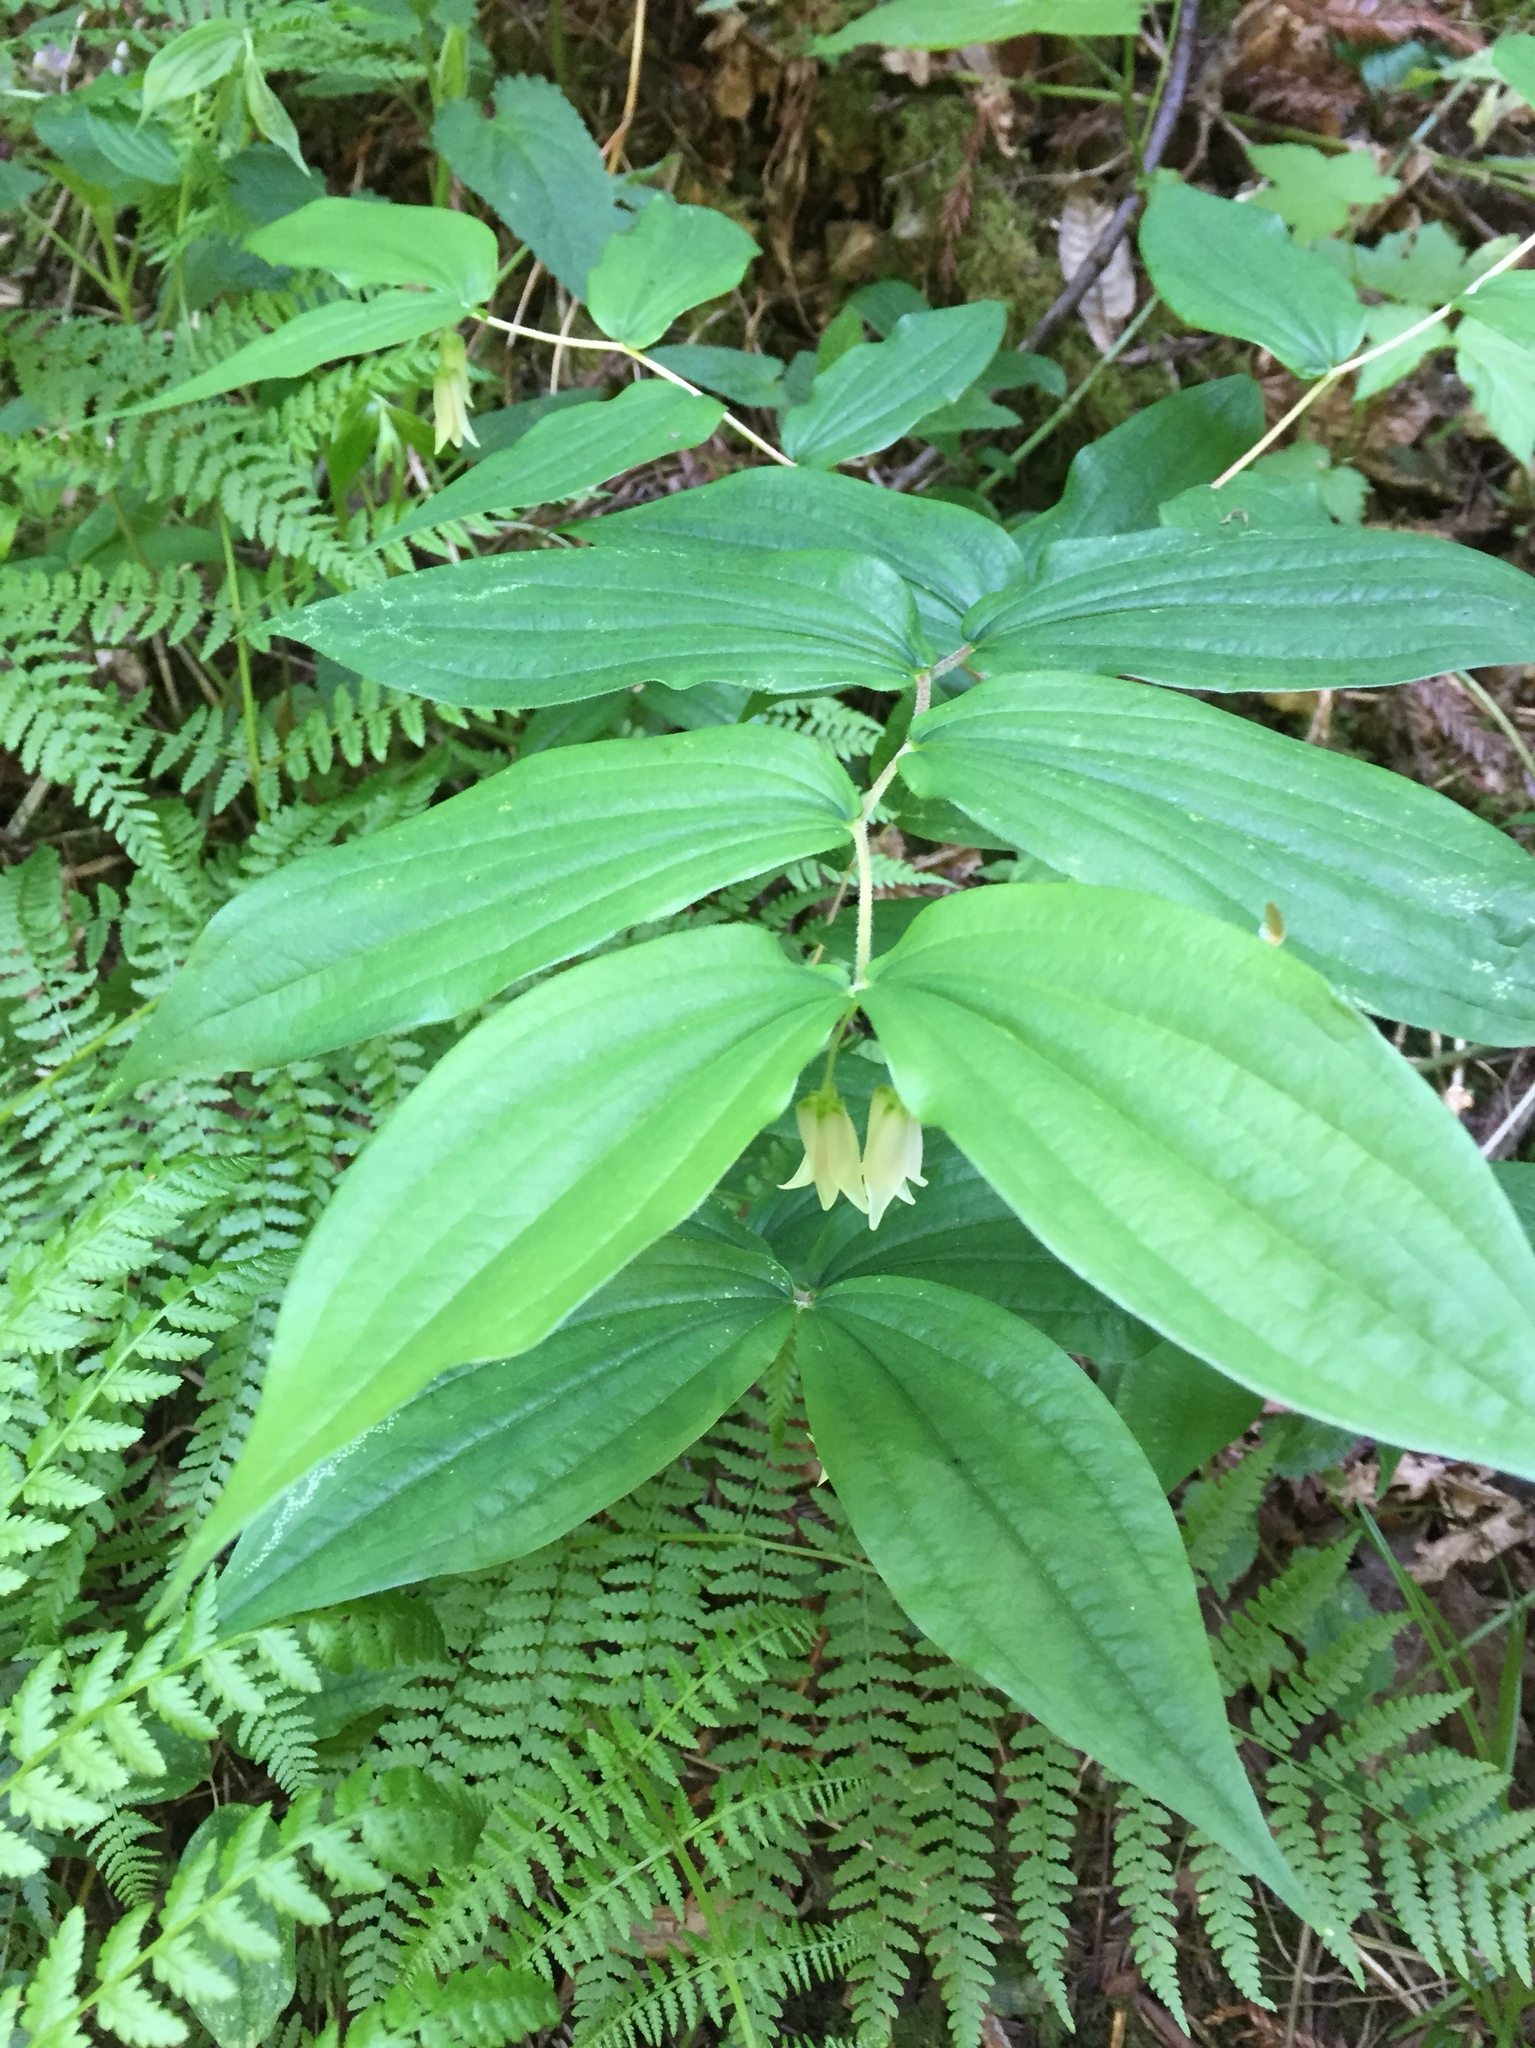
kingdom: Plantae
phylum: Tracheophyta
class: Liliopsida
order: Liliales
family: Liliaceae
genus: Prosartes
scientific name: Prosartes smithii
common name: Fairy-lantern
